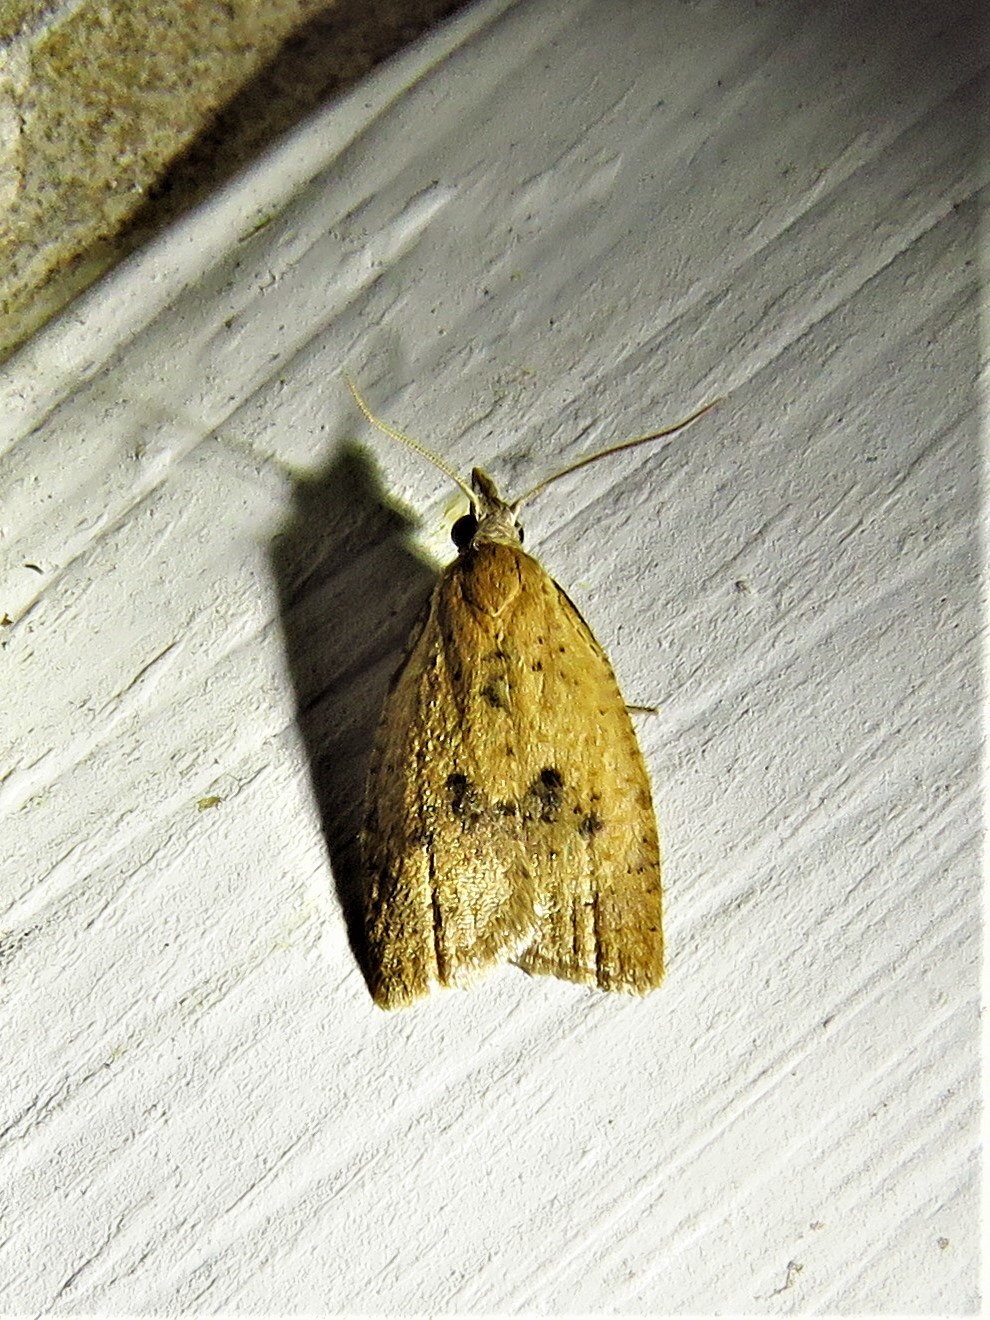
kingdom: Animalia
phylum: Arthropoda
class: Insecta
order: Lepidoptera
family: Tortricidae
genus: Sparganothoides
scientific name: Sparganothoides lentiginosana
